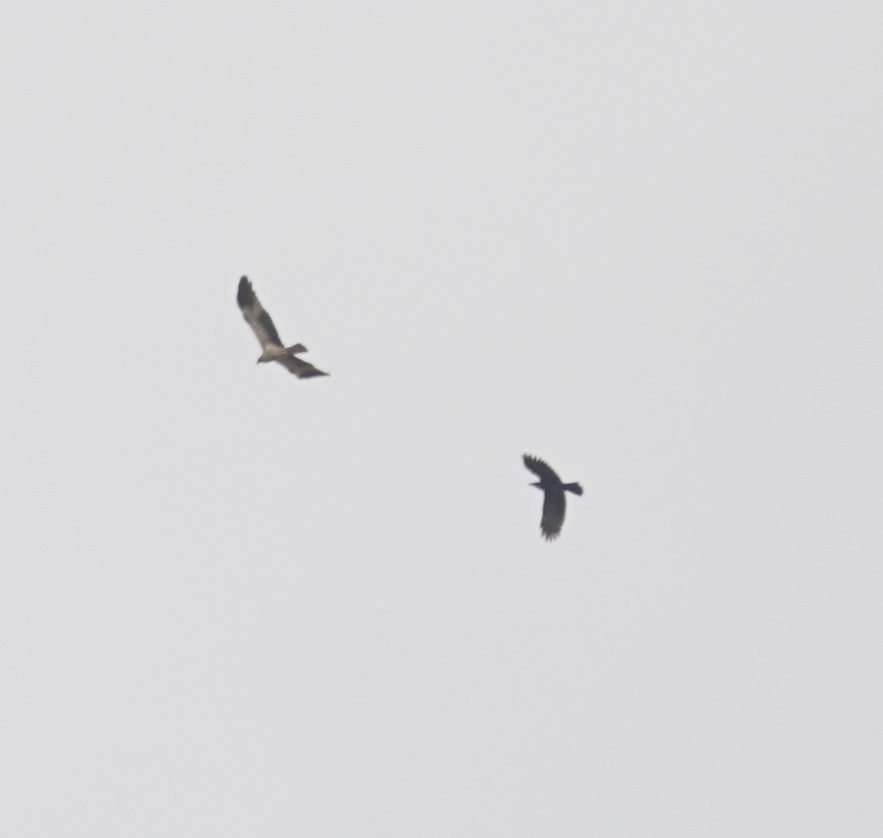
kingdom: Animalia
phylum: Chordata
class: Aves
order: Accipitriformes
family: Accipitridae
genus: Haliaeetus
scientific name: Haliaeetus leucogaster
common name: White-bellied sea eagle
